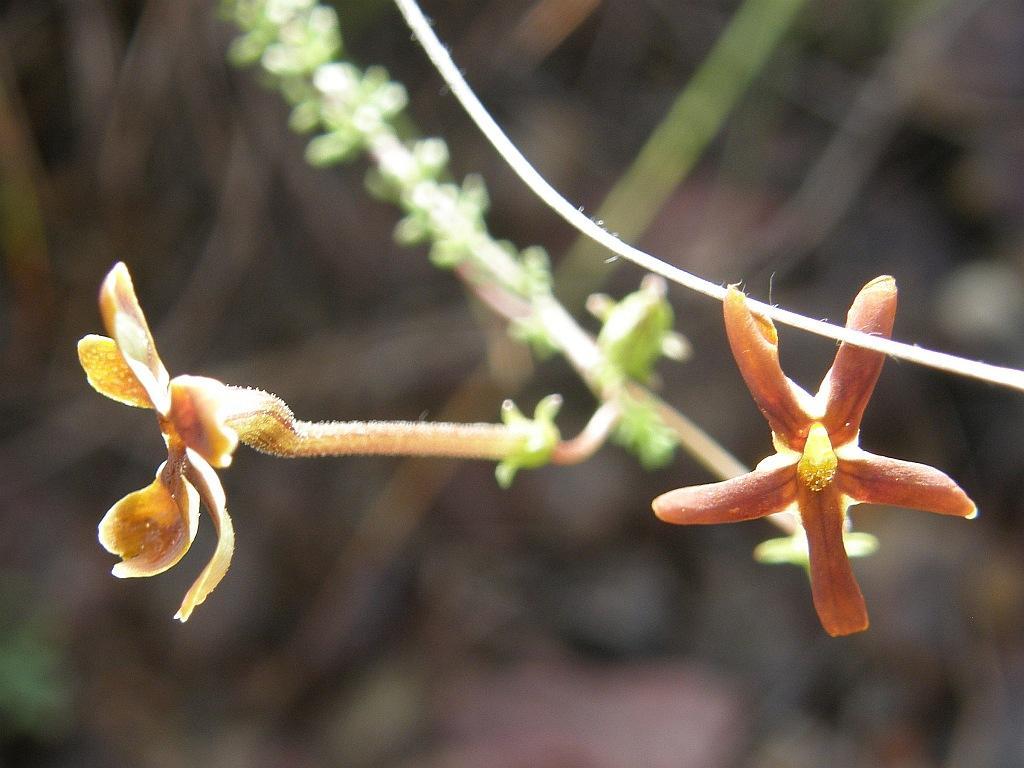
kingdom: Plantae
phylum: Tracheophyta
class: Magnoliopsida
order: Lamiales
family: Scrophulariaceae
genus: Jamesbrittenia
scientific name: Jamesbrittenia atropurpurea
